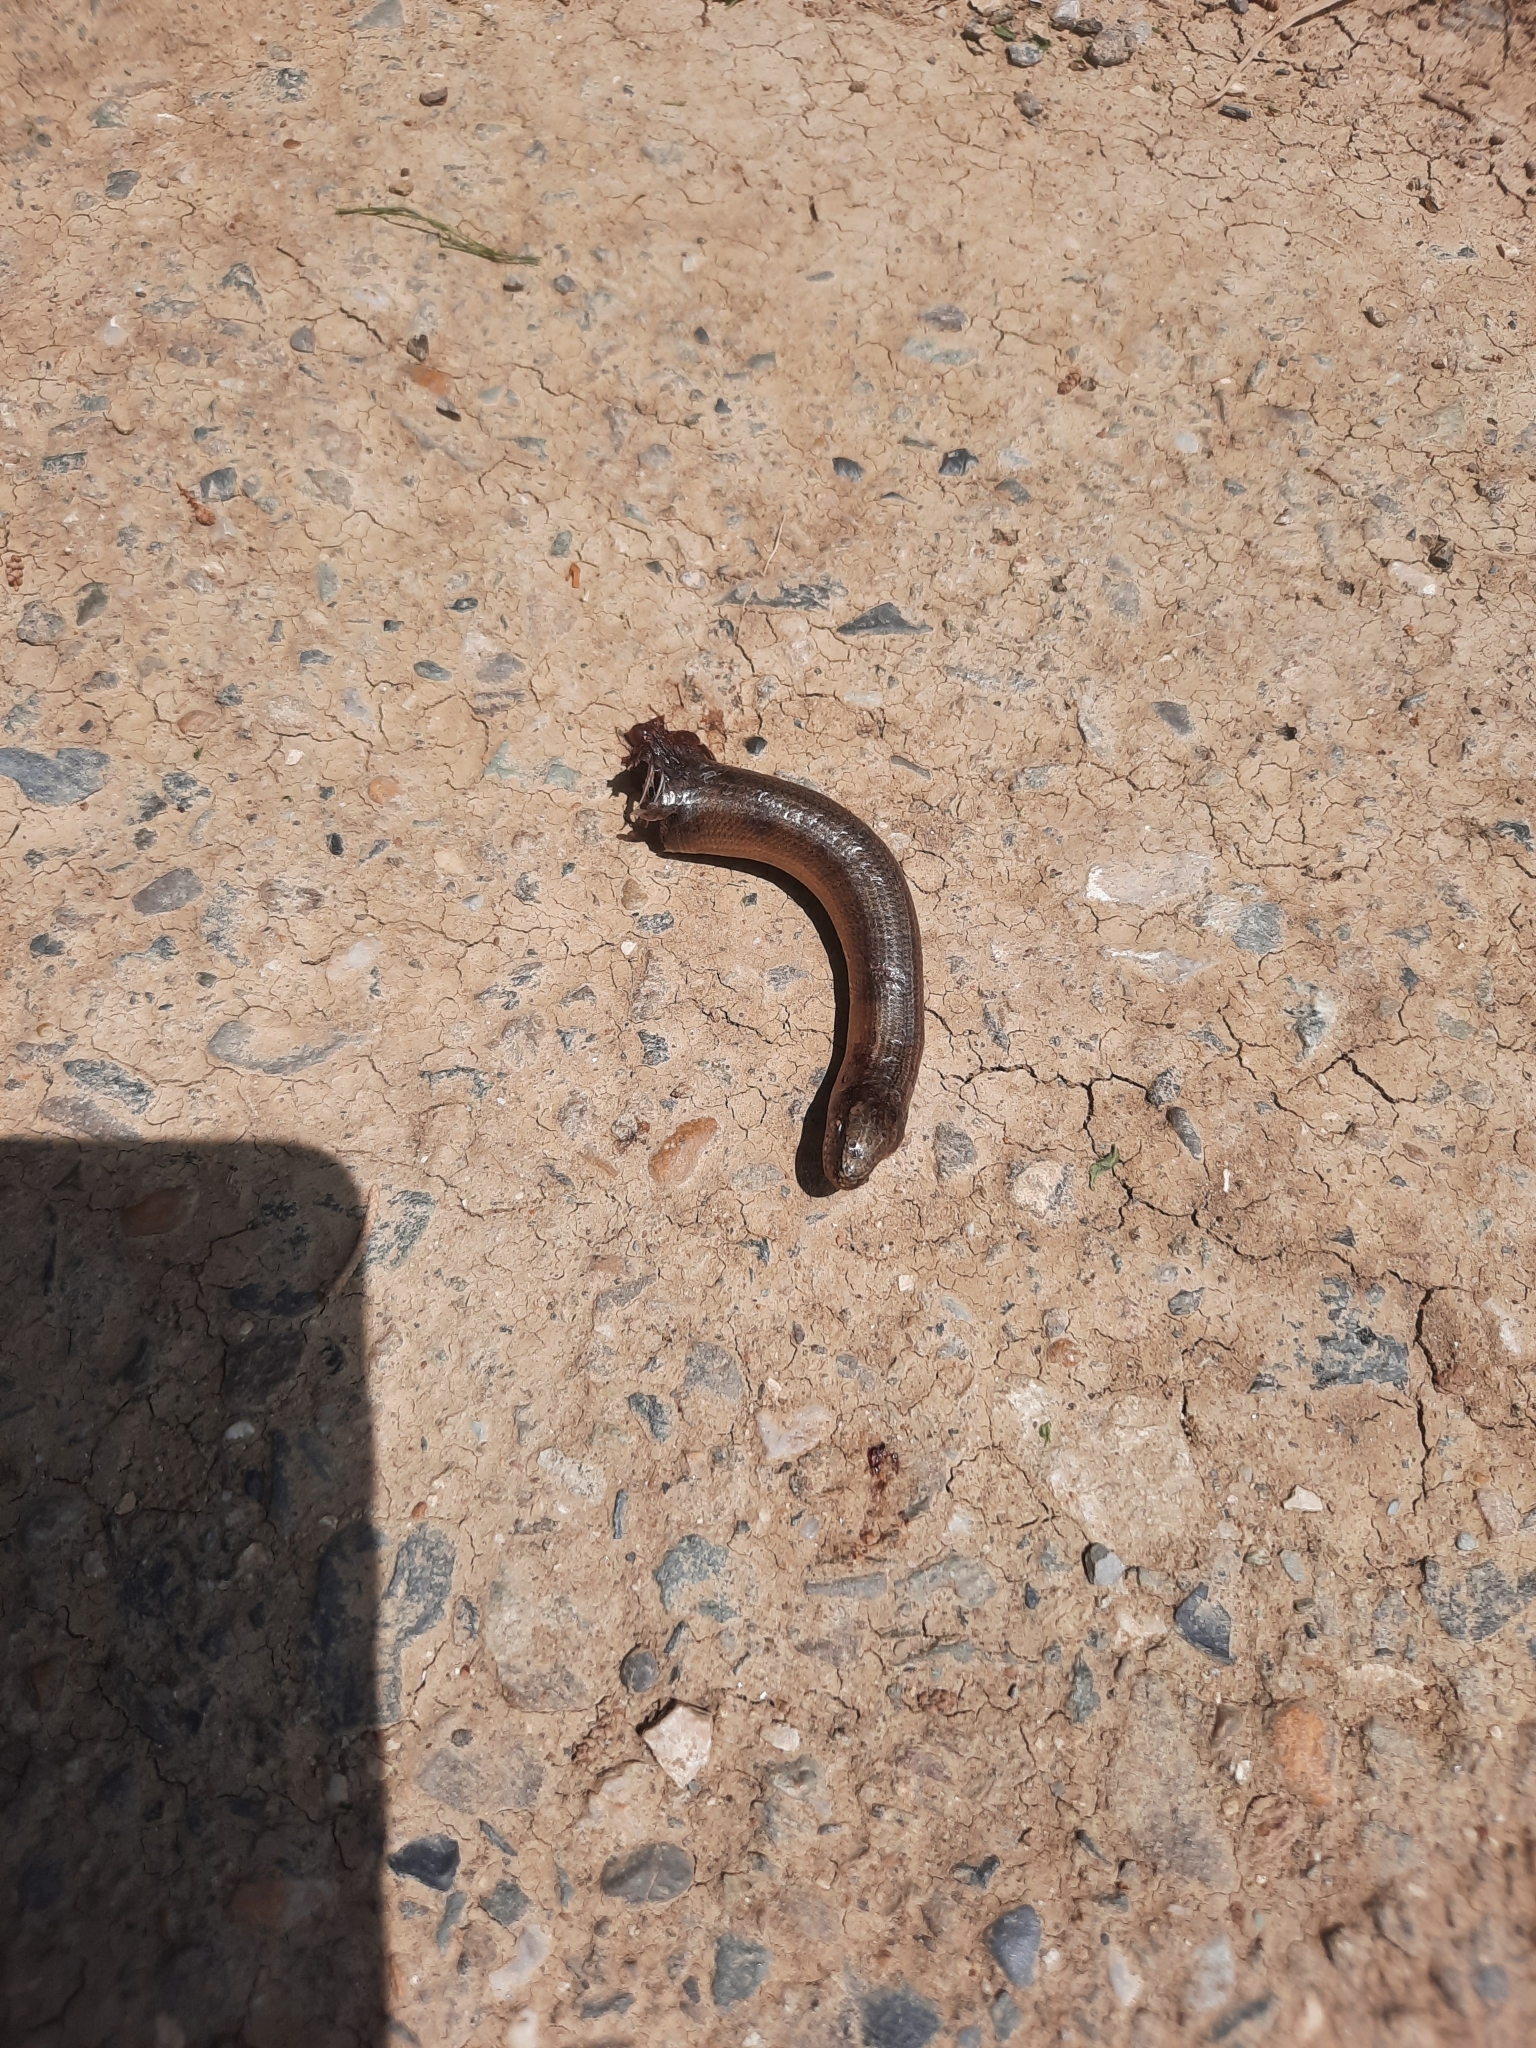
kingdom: Animalia
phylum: Chordata
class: Squamata
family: Anguidae
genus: Anguis
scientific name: Anguis colchica
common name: Slow worm
